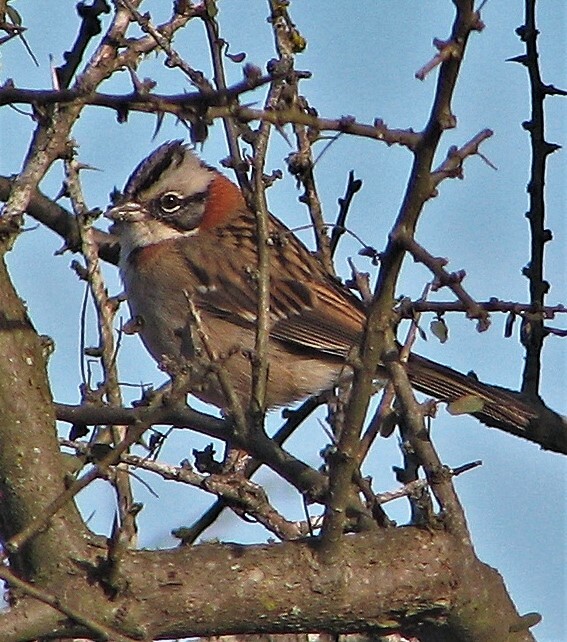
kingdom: Animalia
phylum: Chordata
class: Aves
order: Passeriformes
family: Passerellidae
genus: Zonotrichia
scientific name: Zonotrichia capensis
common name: Rufous-collared sparrow
